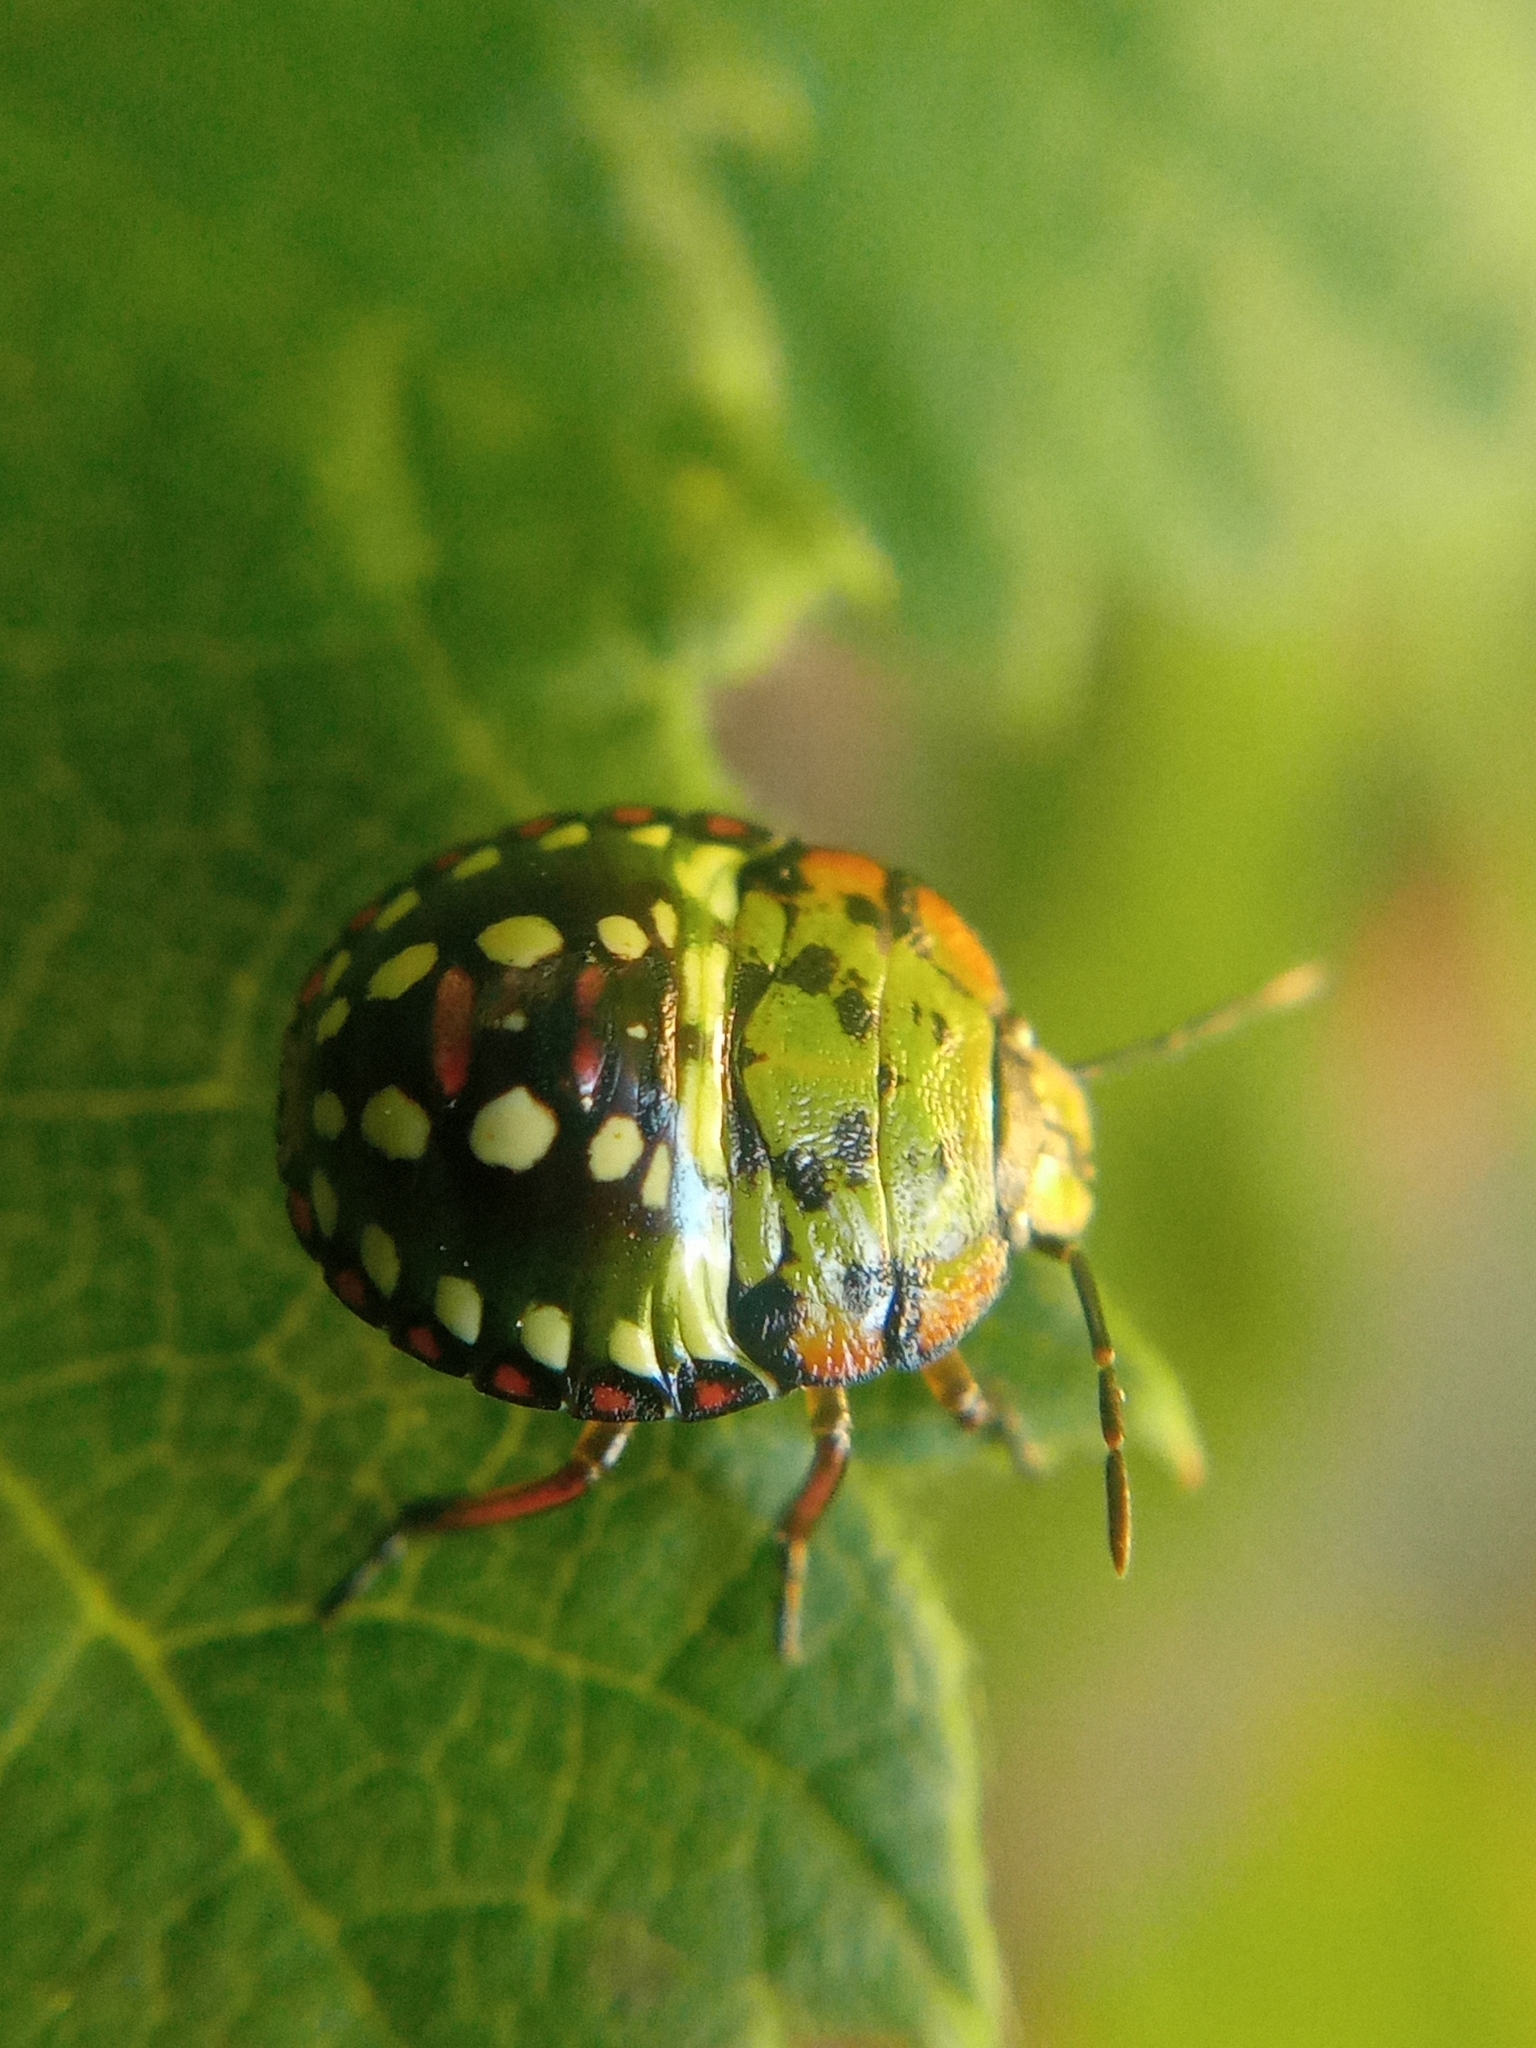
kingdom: Animalia
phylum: Arthropoda
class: Insecta
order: Hemiptera
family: Pentatomidae
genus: Nezara
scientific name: Nezara viridula
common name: Southern green stink bug
